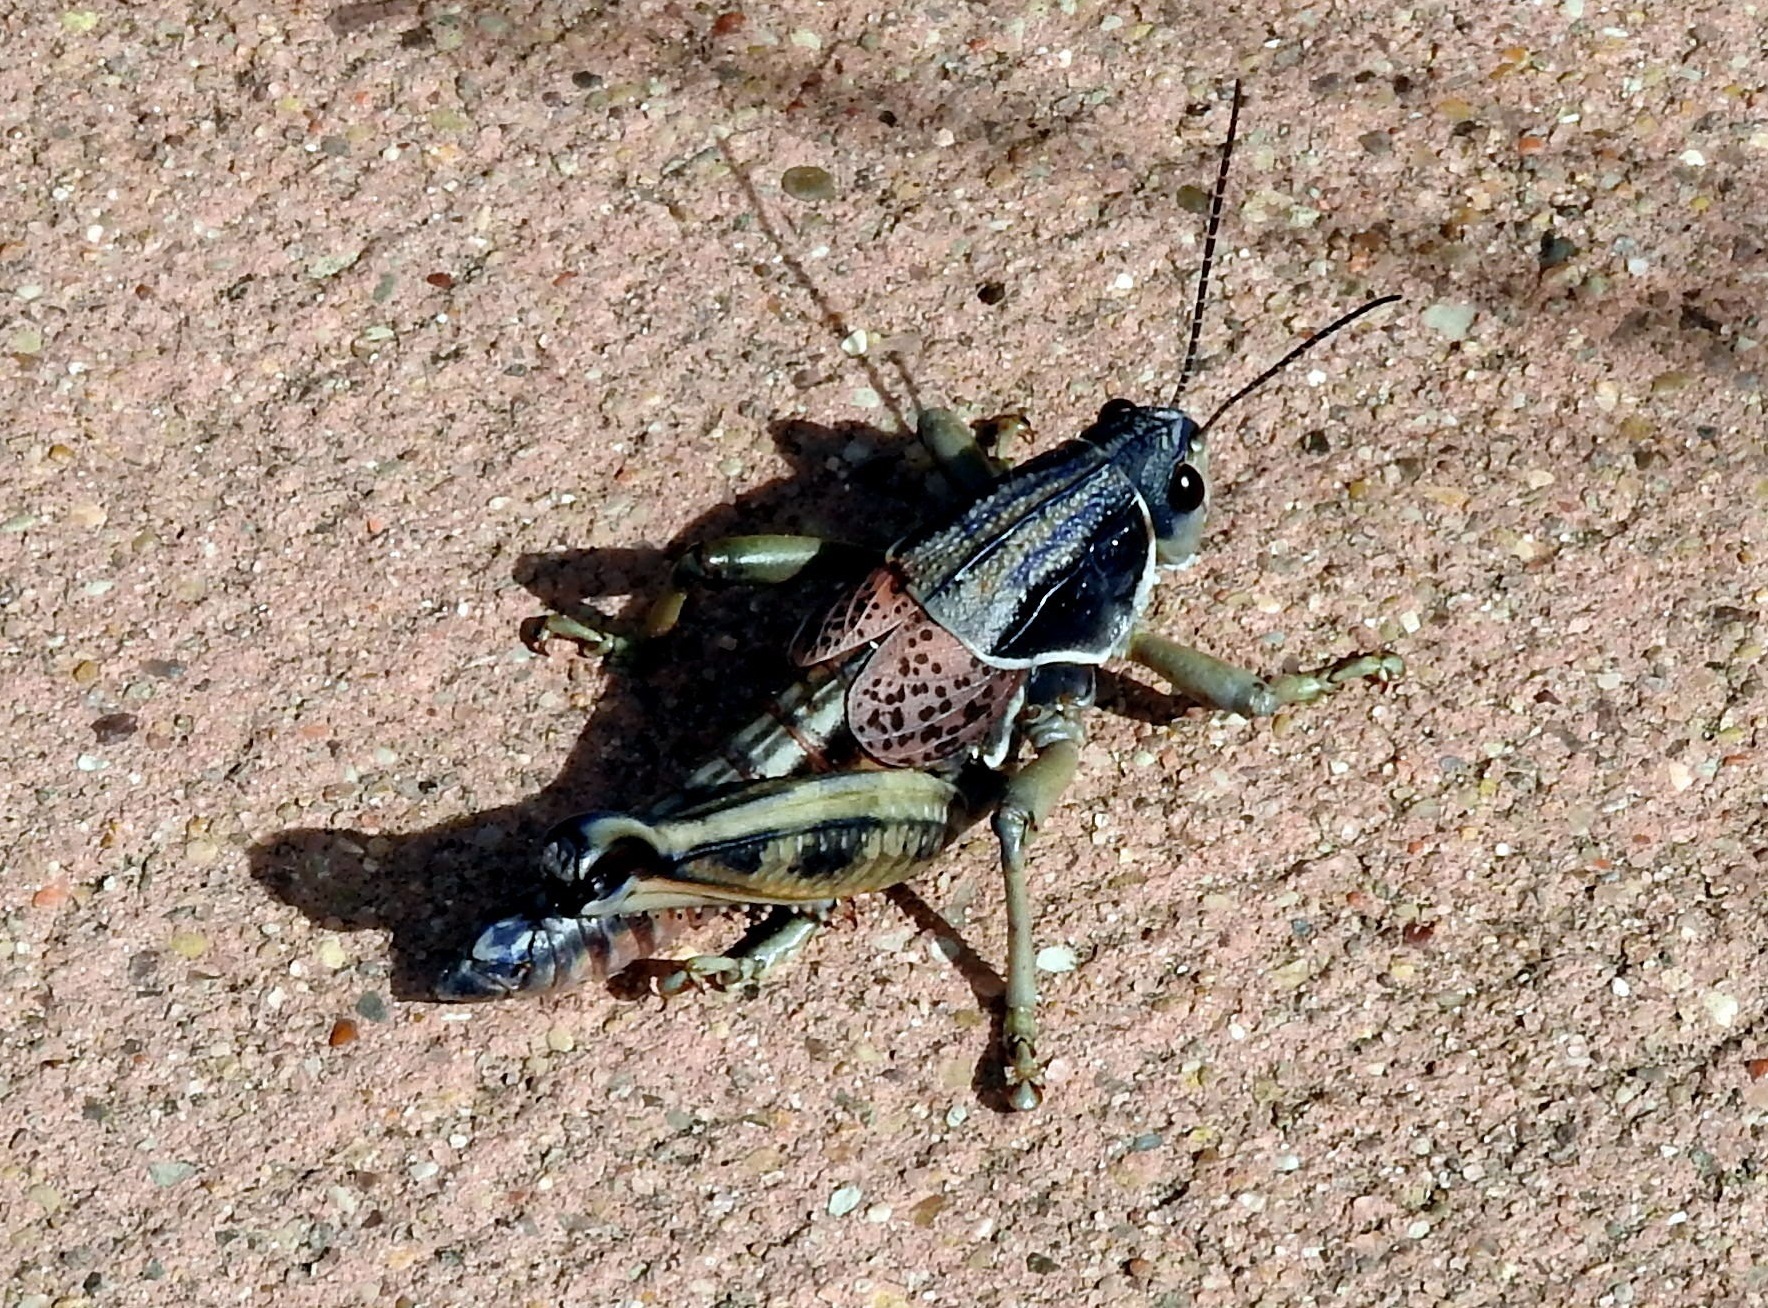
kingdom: Animalia
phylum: Arthropoda
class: Insecta
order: Orthoptera
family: Romaleidae
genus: Brachystola
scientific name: Brachystola magna
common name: Plains lubber grasshopper
